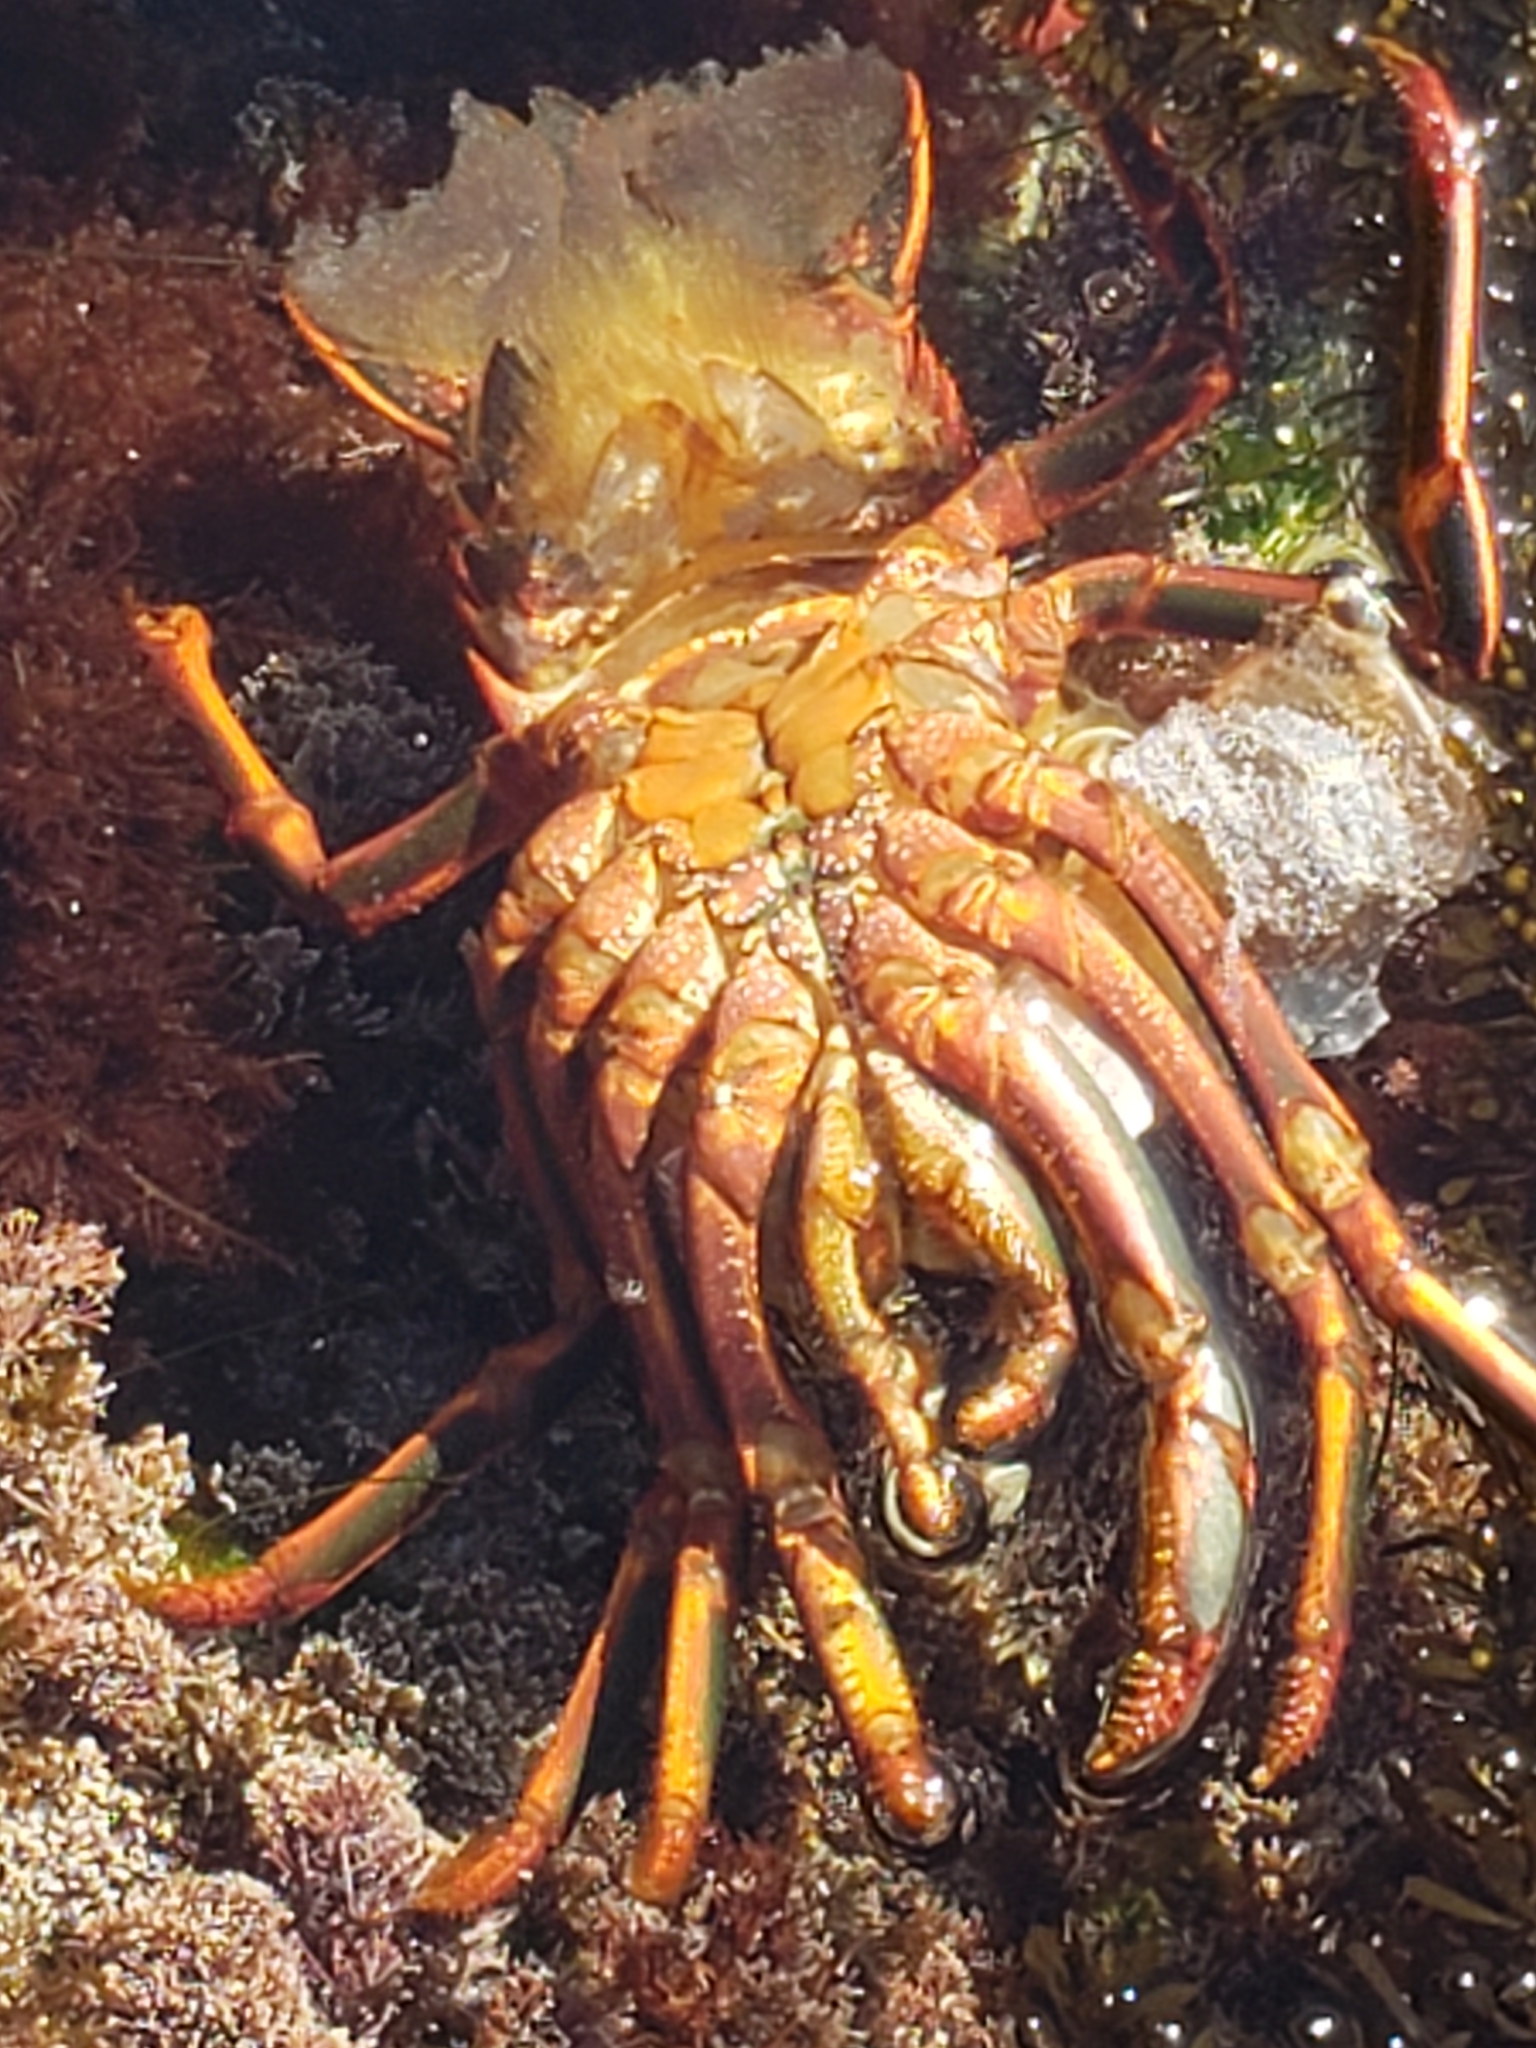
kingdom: Animalia
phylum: Arthropoda
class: Malacostraca
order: Decapoda
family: Palinuridae
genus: Panulirus
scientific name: Panulirus interruptus
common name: California spiny lobster
